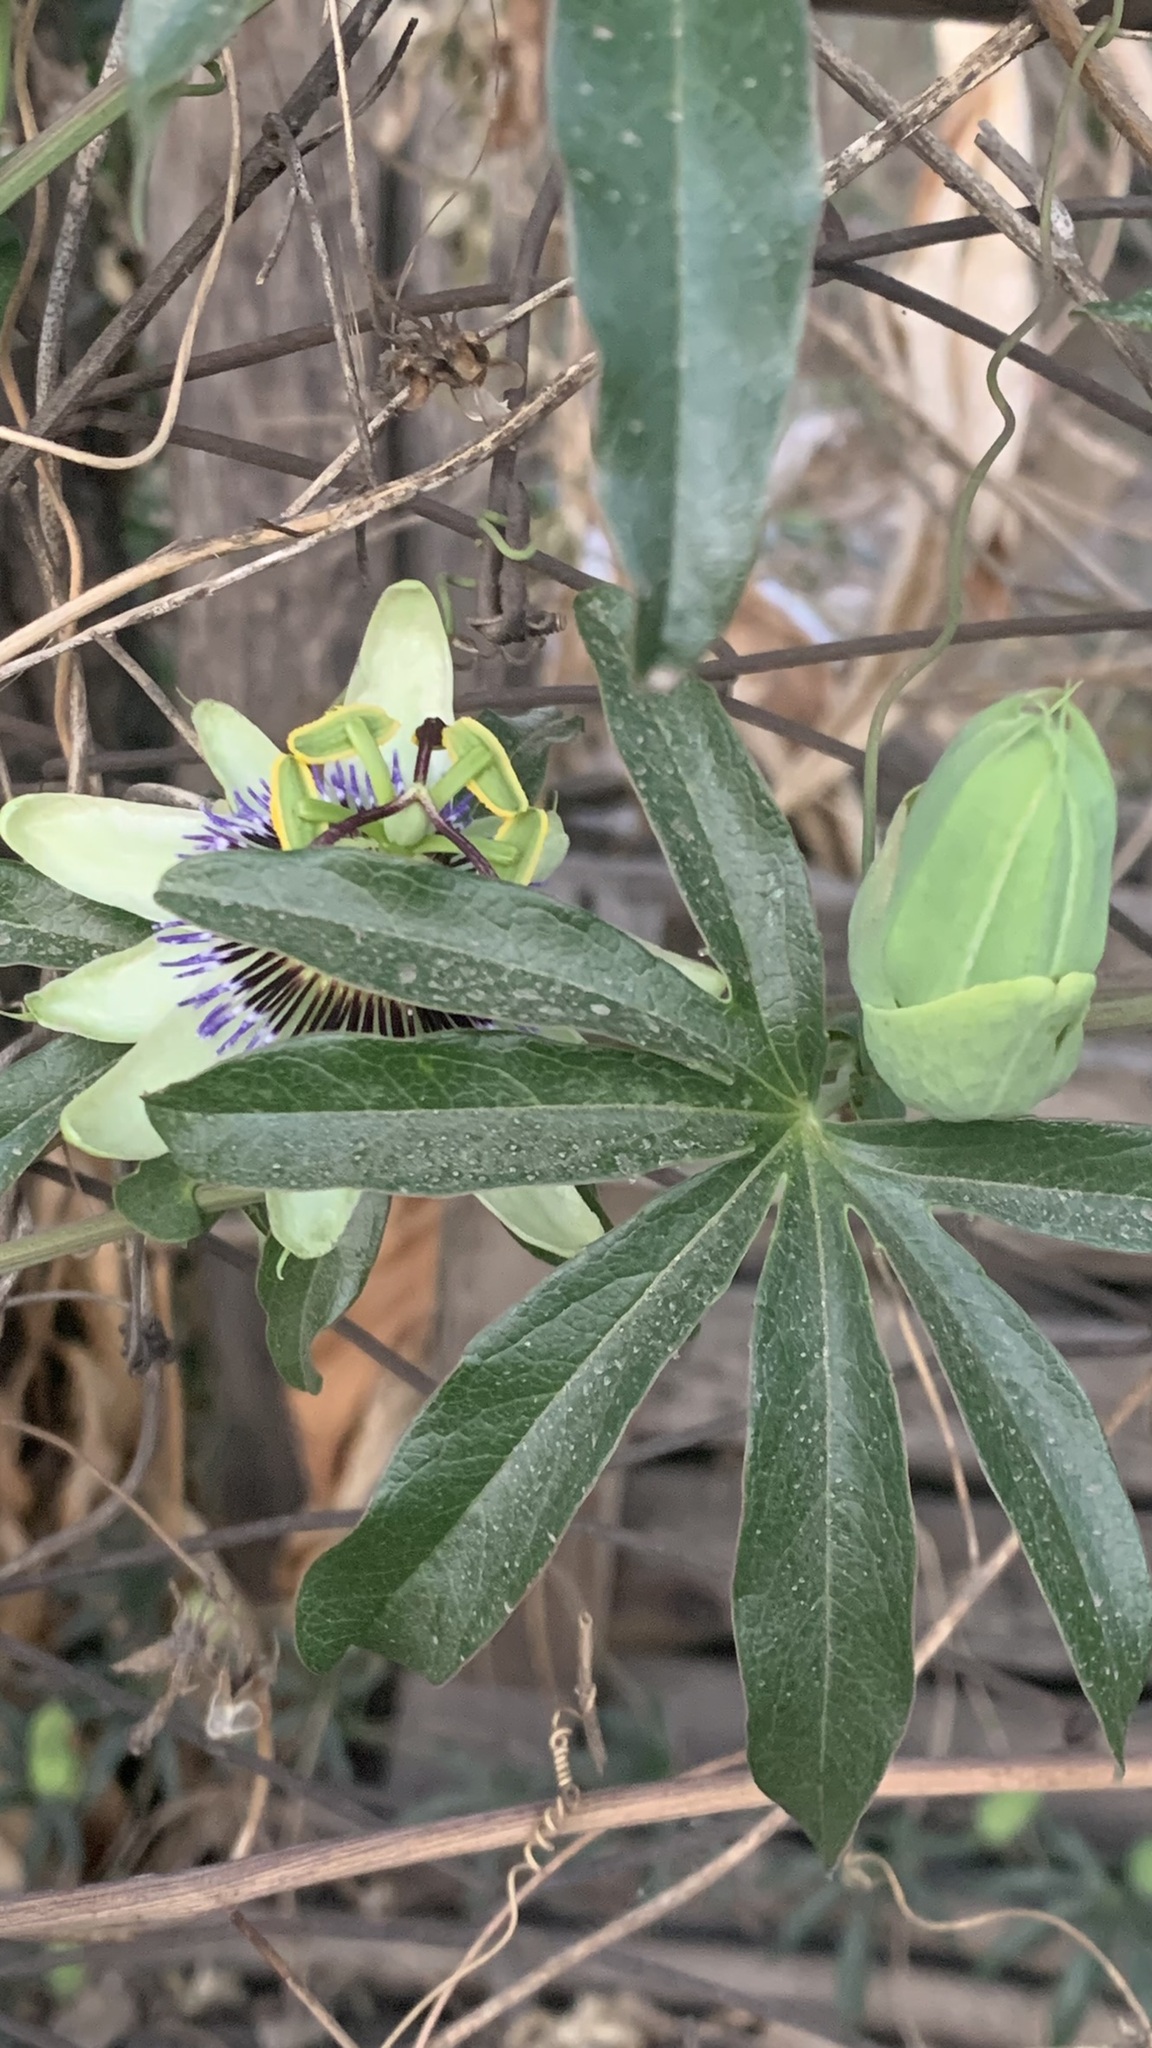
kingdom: Plantae
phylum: Tracheophyta
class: Magnoliopsida
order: Malpighiales
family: Passifloraceae
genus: Passiflora
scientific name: Passiflora caerulea
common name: Blue passionflower
